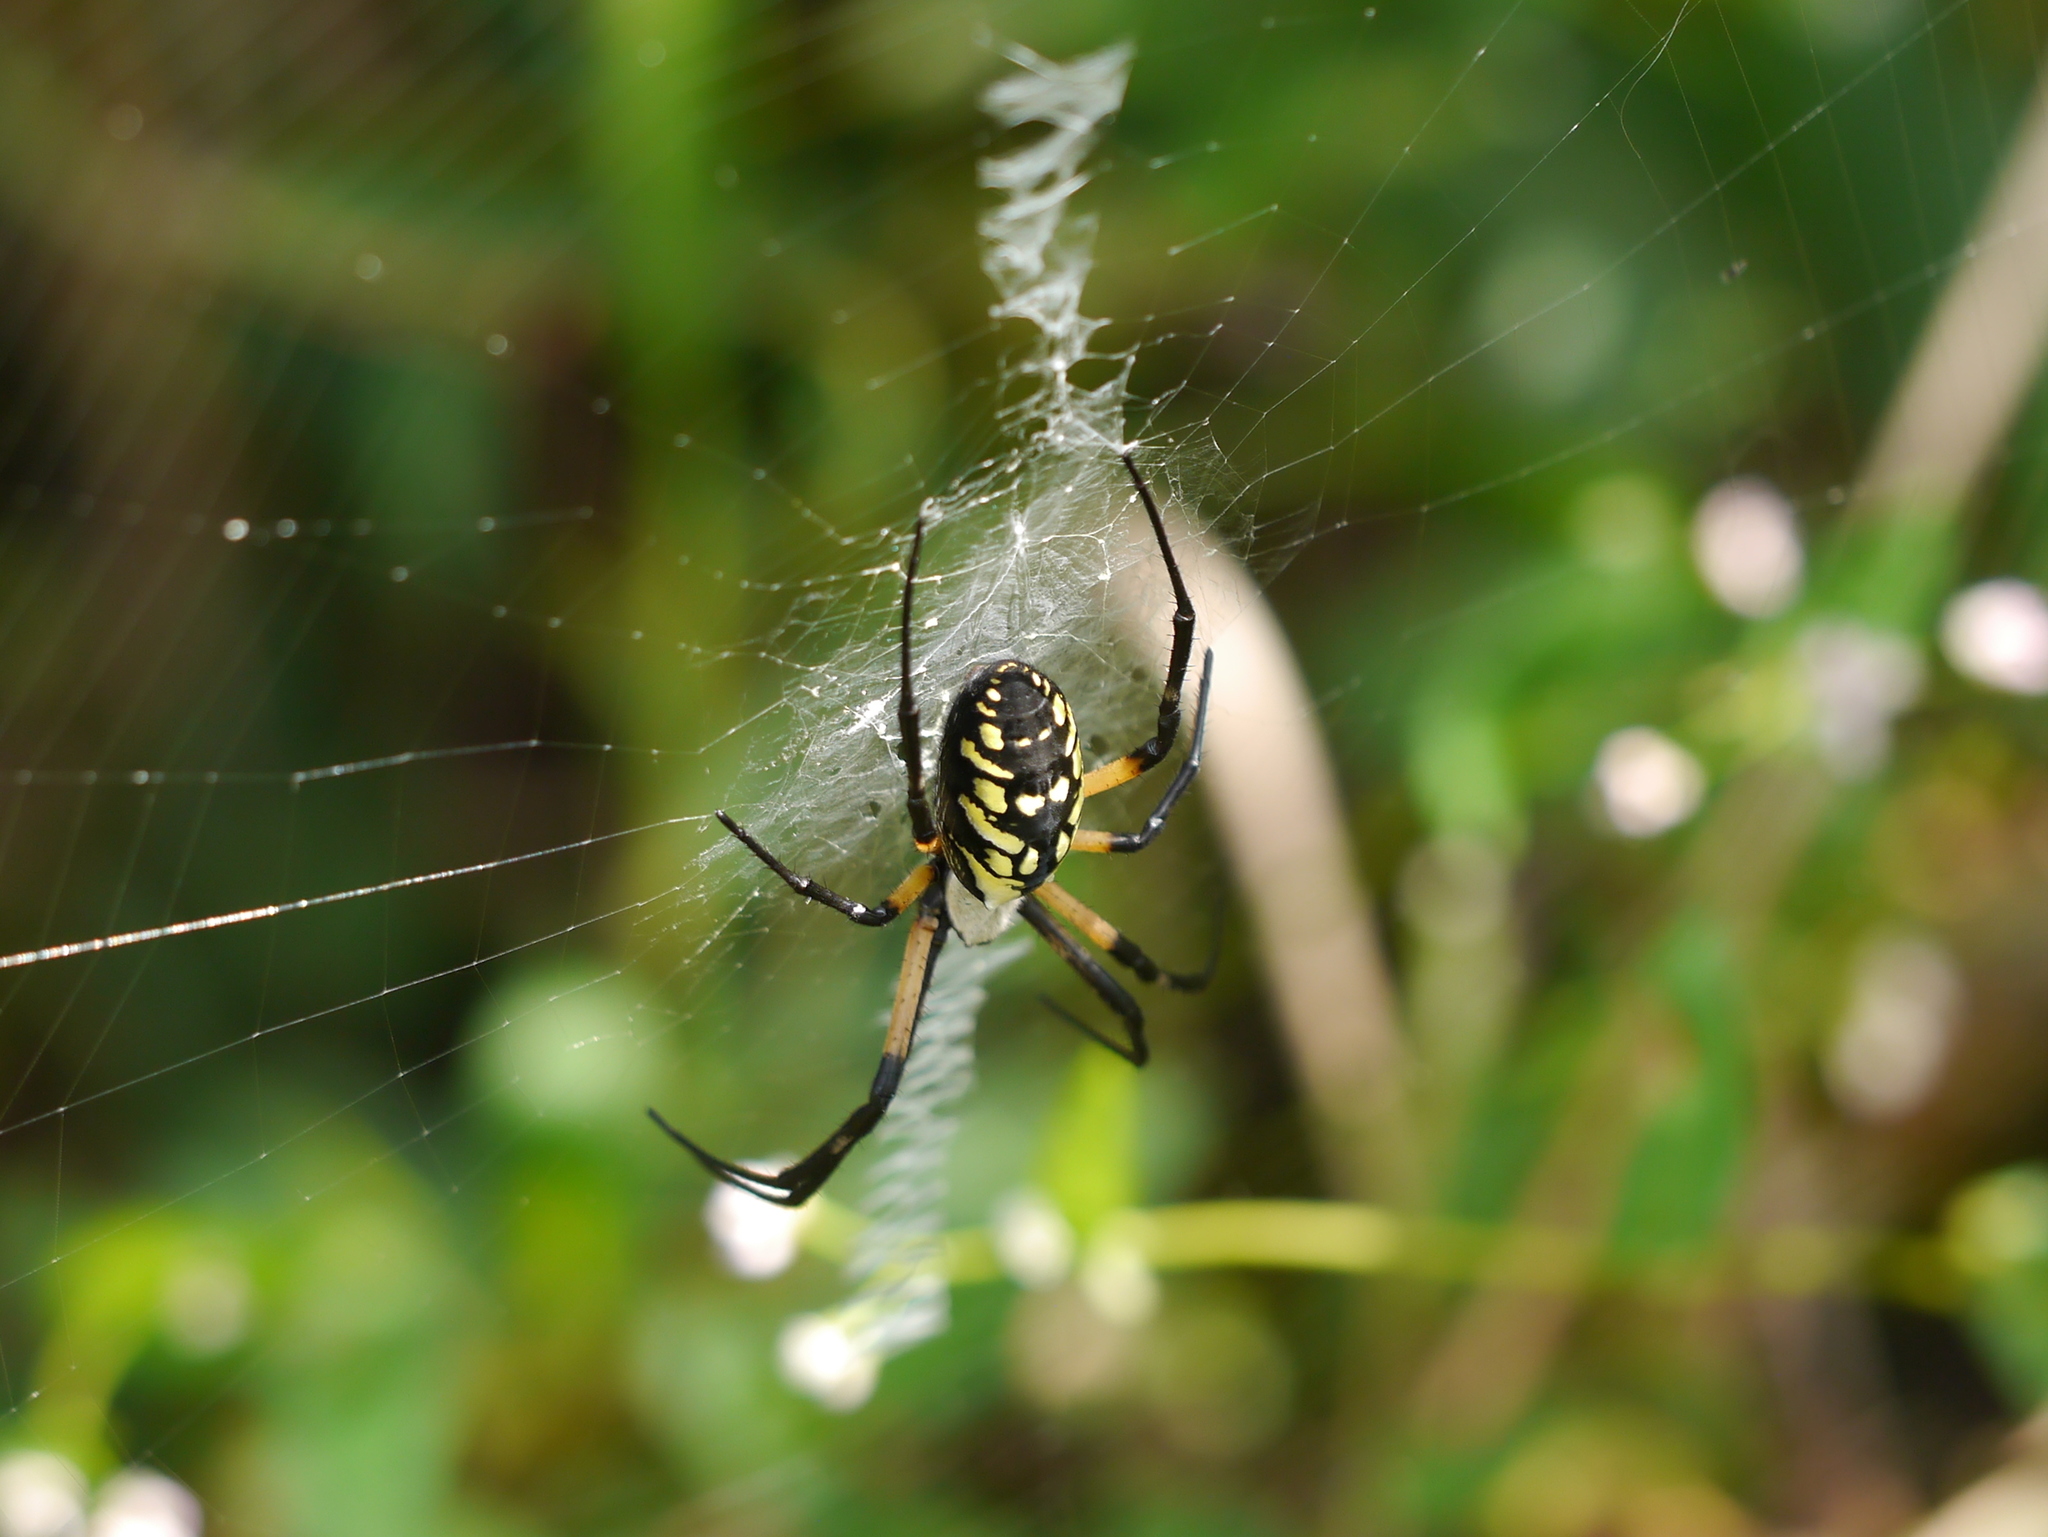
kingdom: Animalia
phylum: Arthropoda
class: Arachnida
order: Araneae
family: Araneidae
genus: Argiope
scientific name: Argiope aurantia
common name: Orb weavers
